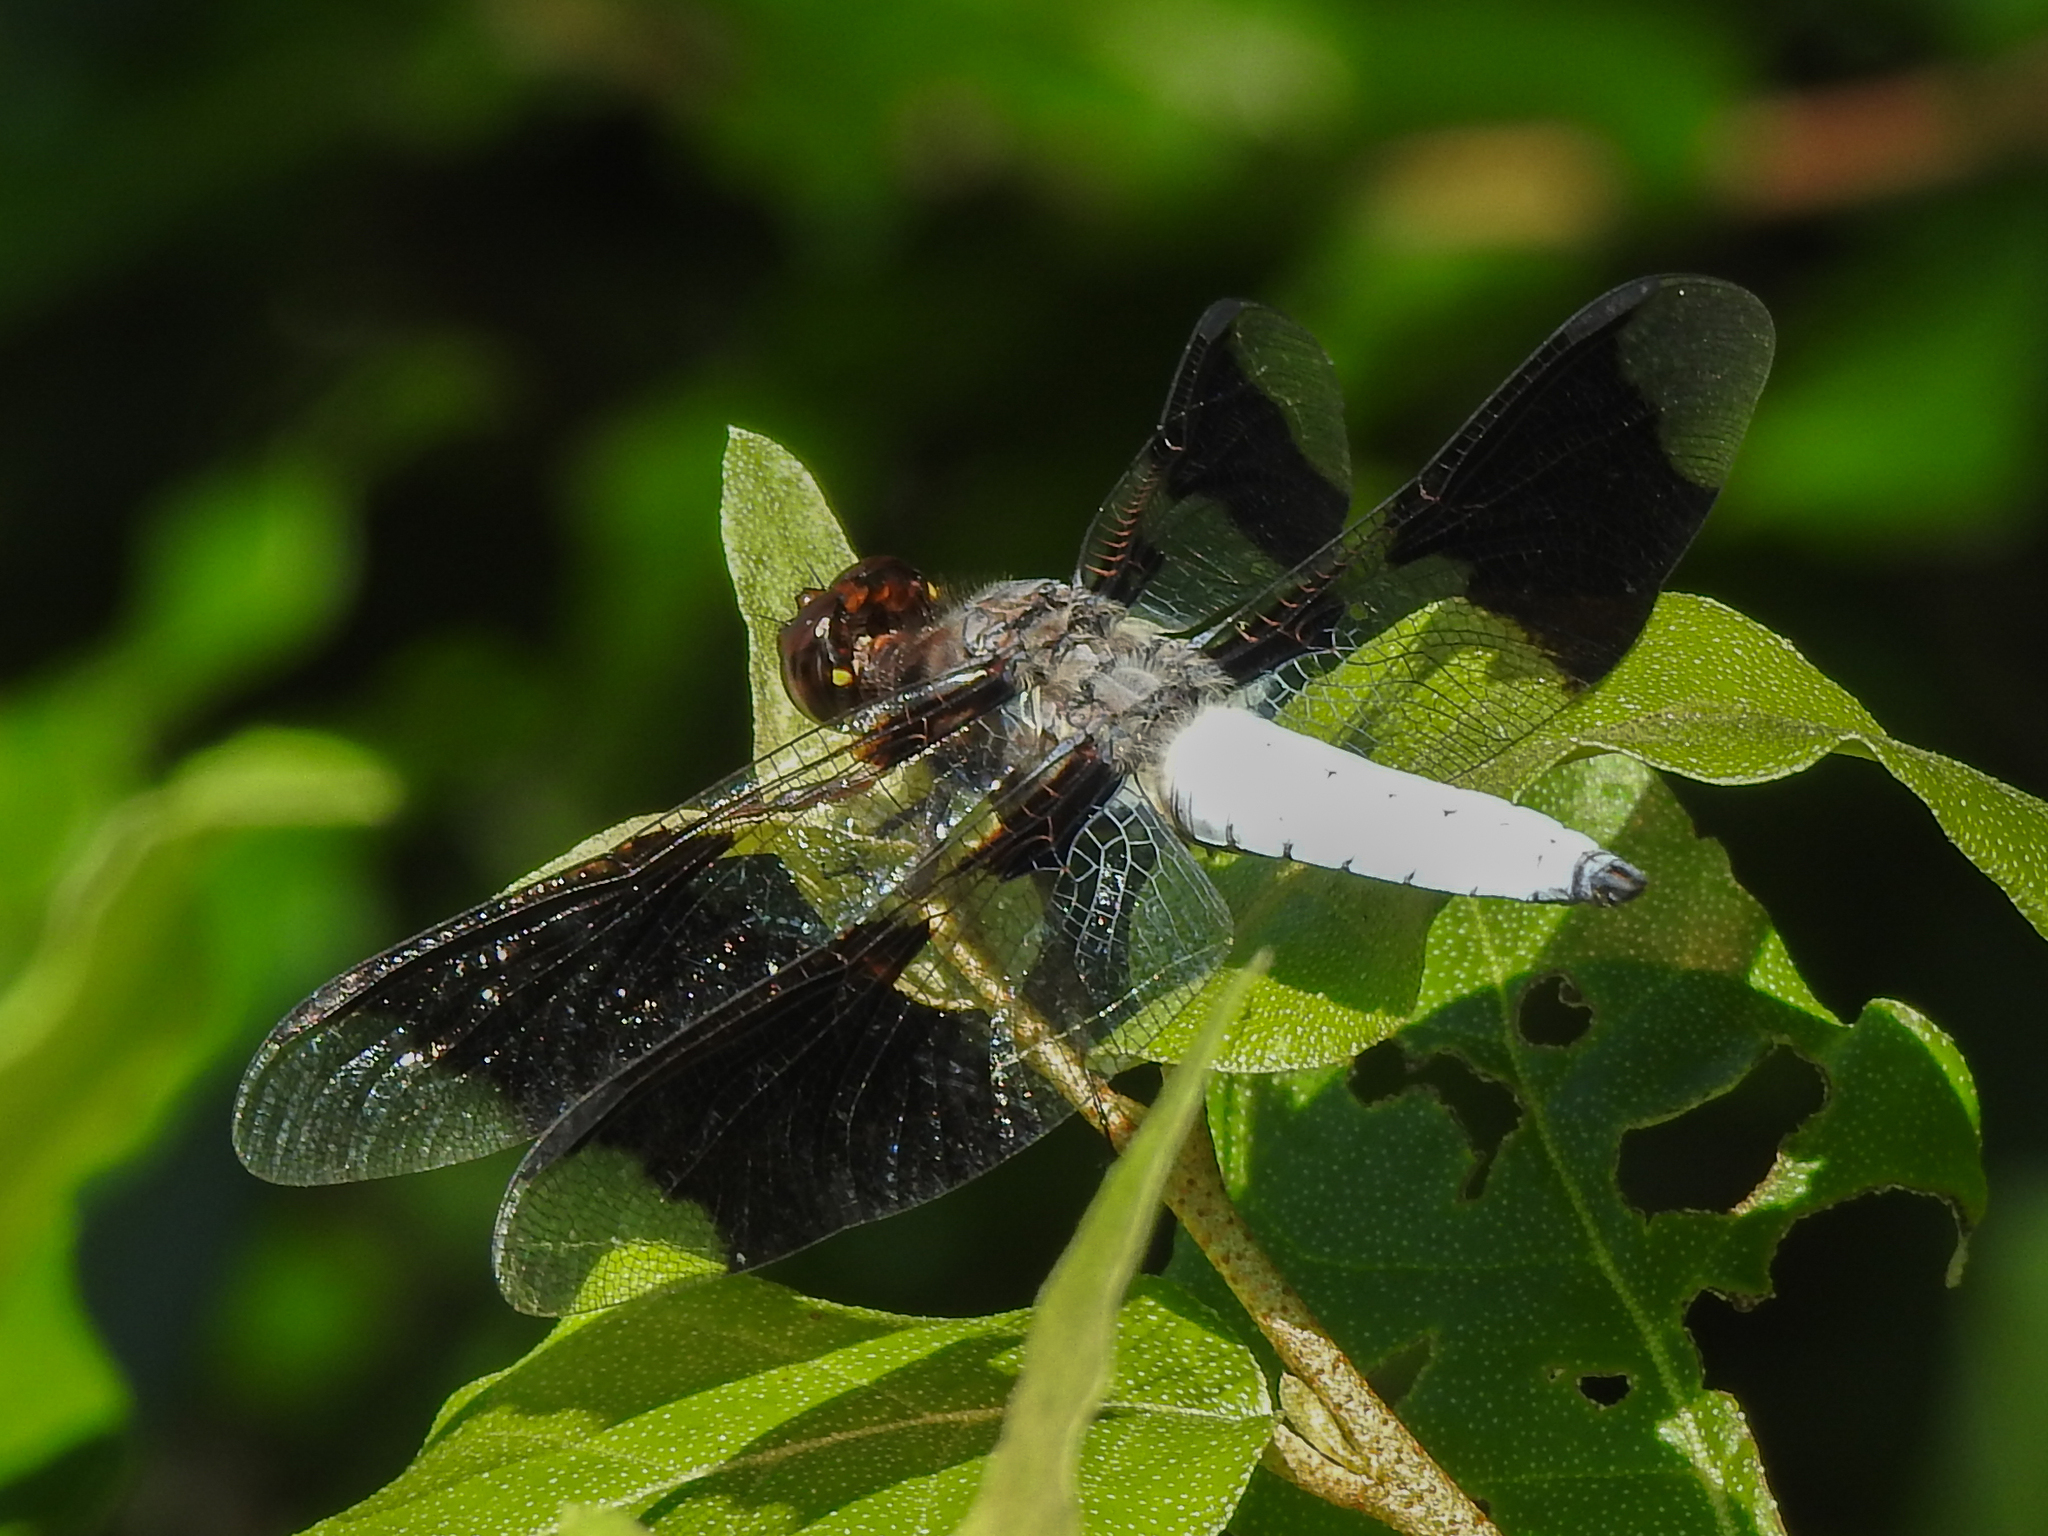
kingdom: Animalia
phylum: Arthropoda
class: Insecta
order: Odonata
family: Libellulidae
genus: Plathemis
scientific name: Plathemis lydia
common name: Common whitetail
